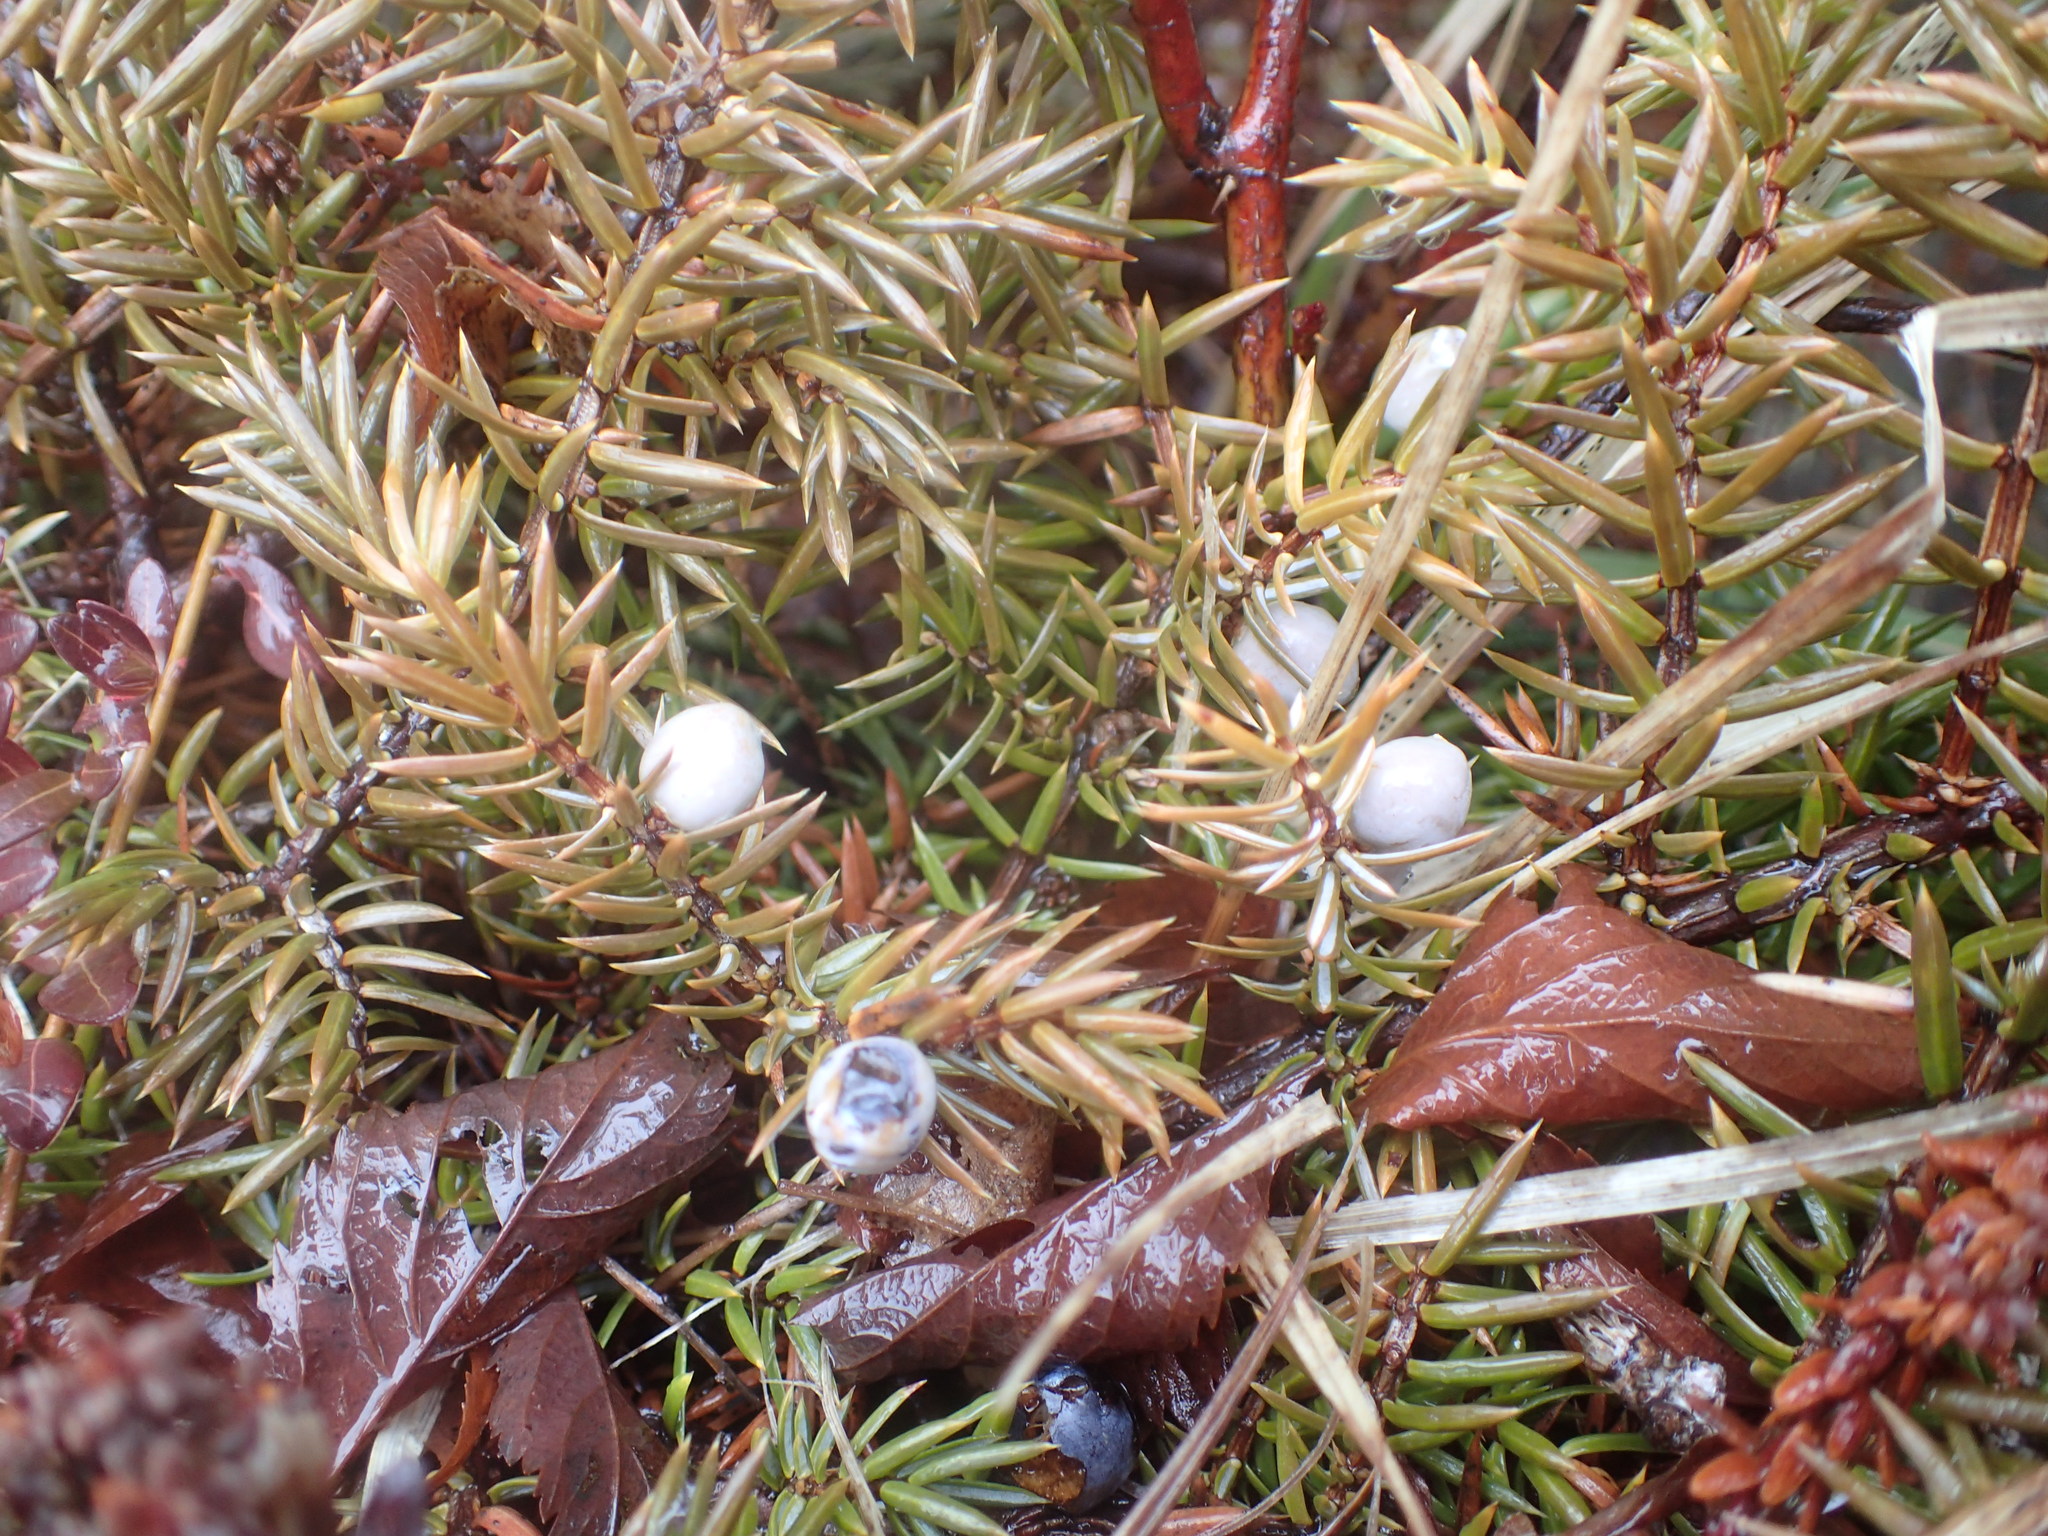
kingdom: Plantae
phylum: Tracheophyta
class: Pinopsida
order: Pinales
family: Cupressaceae
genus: Juniperus
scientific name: Juniperus communis
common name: Common juniper
